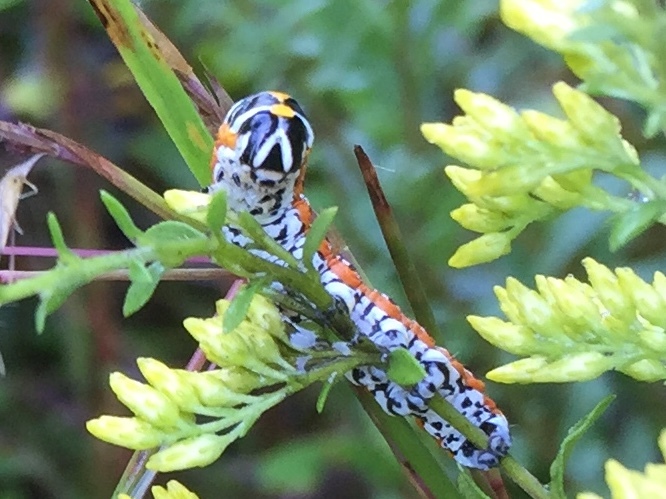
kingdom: Animalia
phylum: Arthropoda
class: Insecta
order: Lepidoptera
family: Noctuidae
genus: Cucullia
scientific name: Cucullia alfarata
